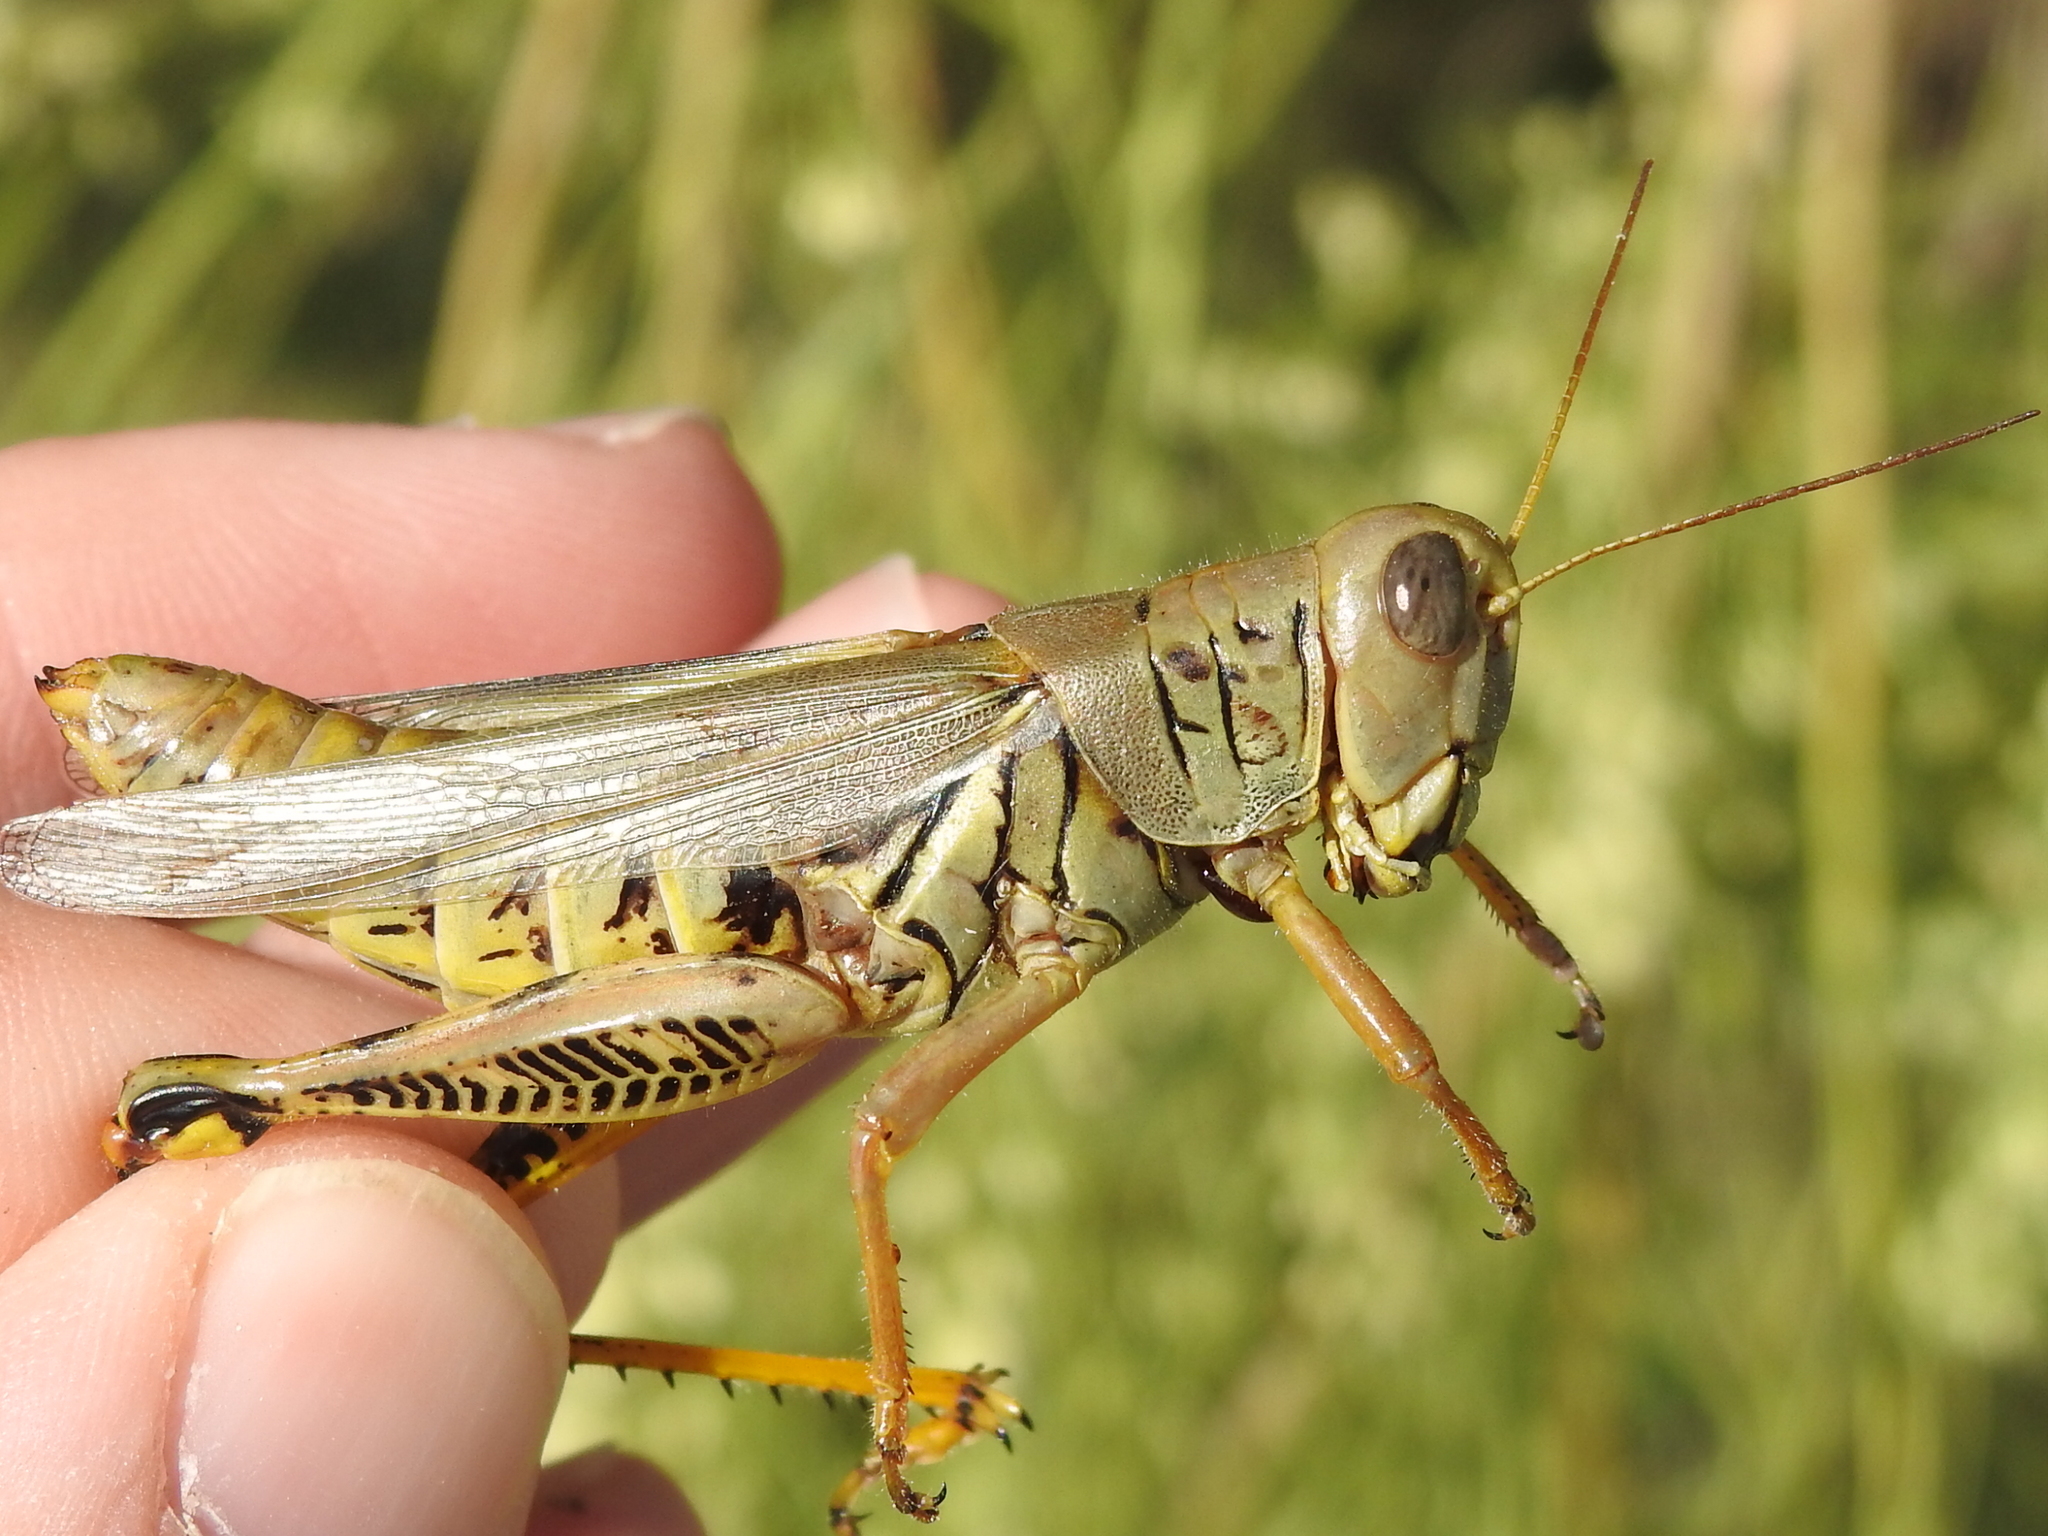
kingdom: Animalia
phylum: Arthropoda
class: Insecta
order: Orthoptera
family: Acrididae
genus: Melanoplus
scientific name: Melanoplus differentialis
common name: Differential grasshopper
